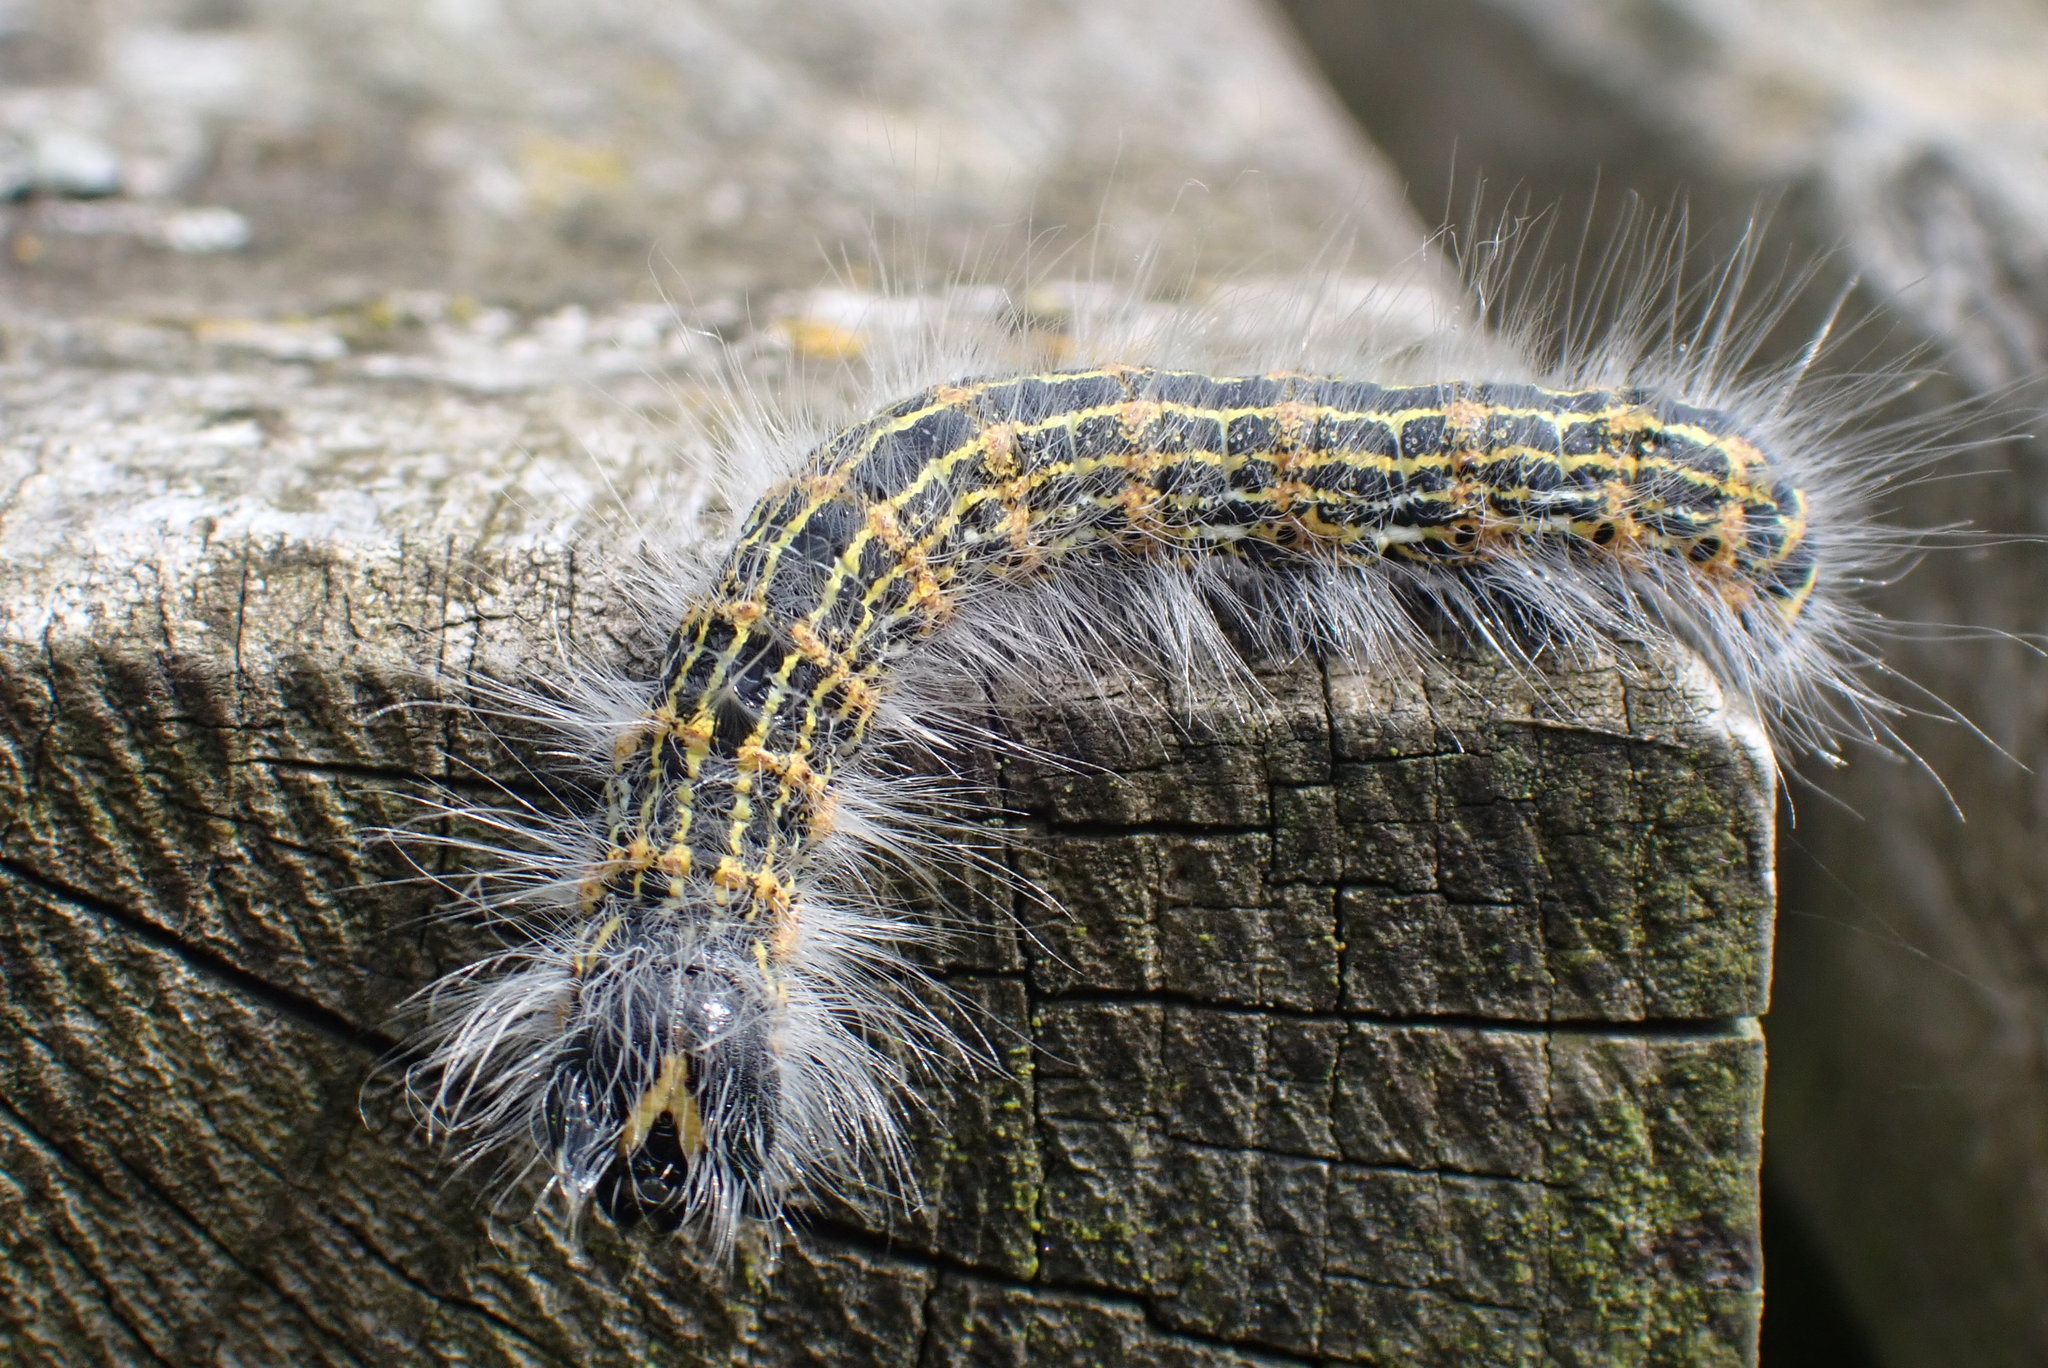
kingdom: Animalia
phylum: Arthropoda
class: Insecta
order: Lepidoptera
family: Notodontidae
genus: Phalera
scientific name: Phalera bucephala
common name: Buff-tip
